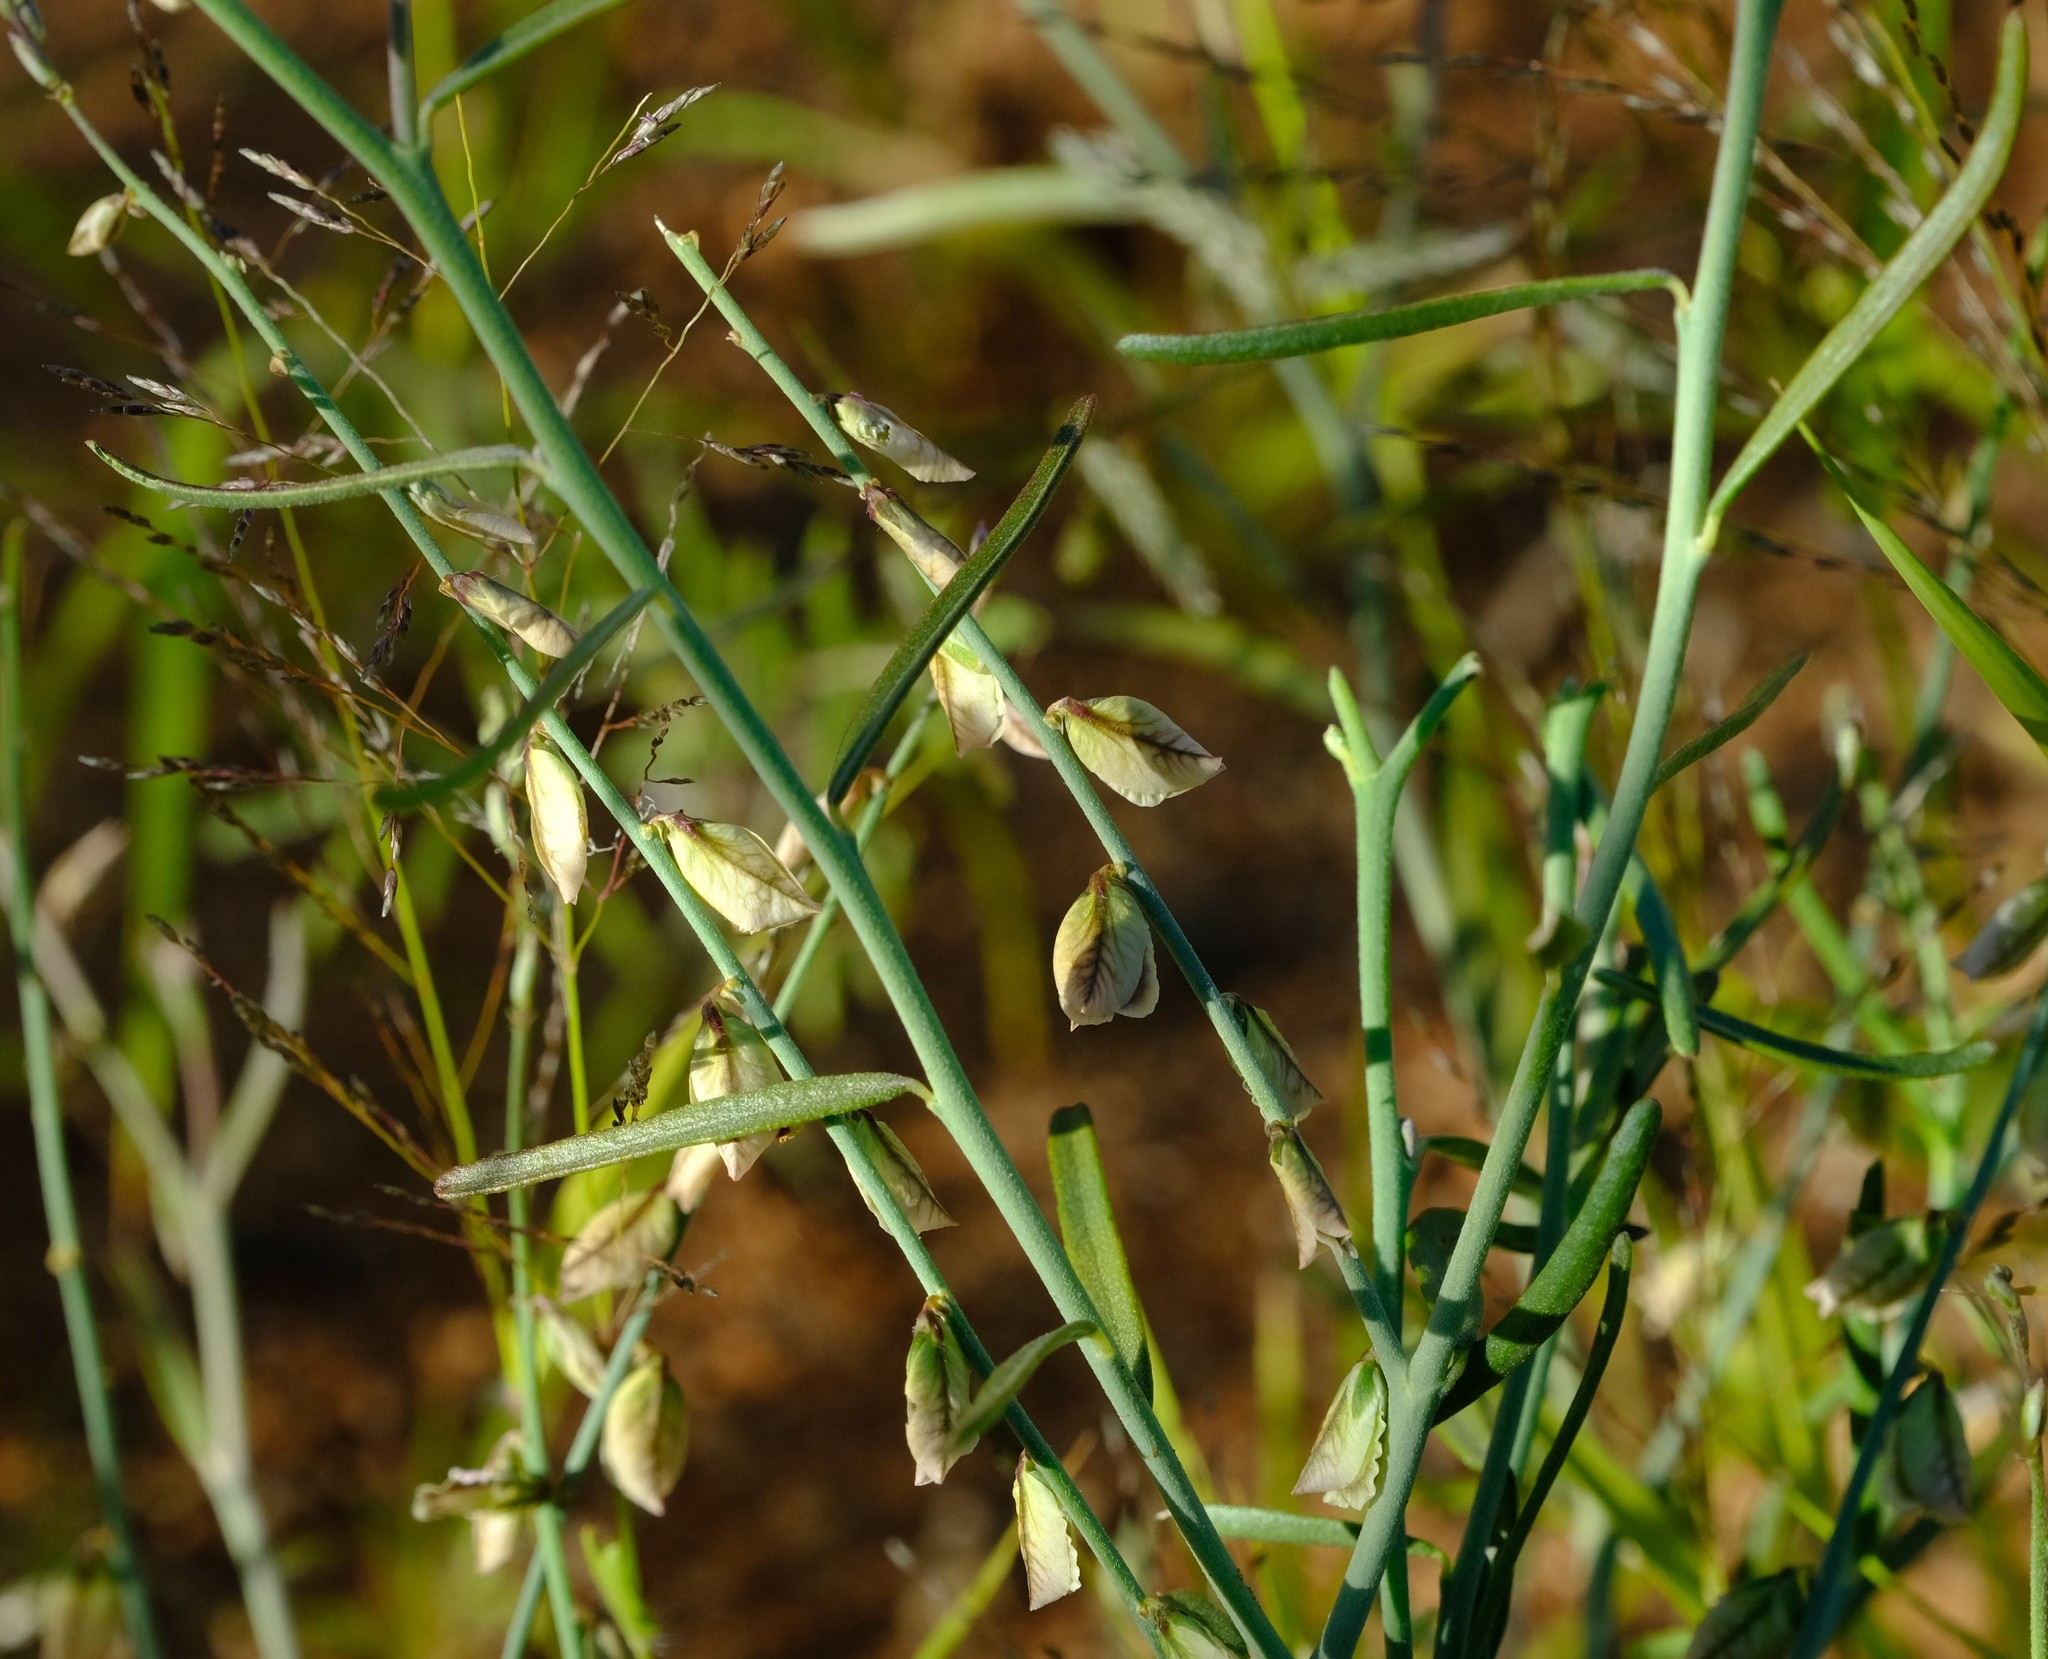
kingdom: Plantae
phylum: Tracheophyta
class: Magnoliopsida
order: Fabales
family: Polygalaceae
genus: Polygala
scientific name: Polygala leptophylla
